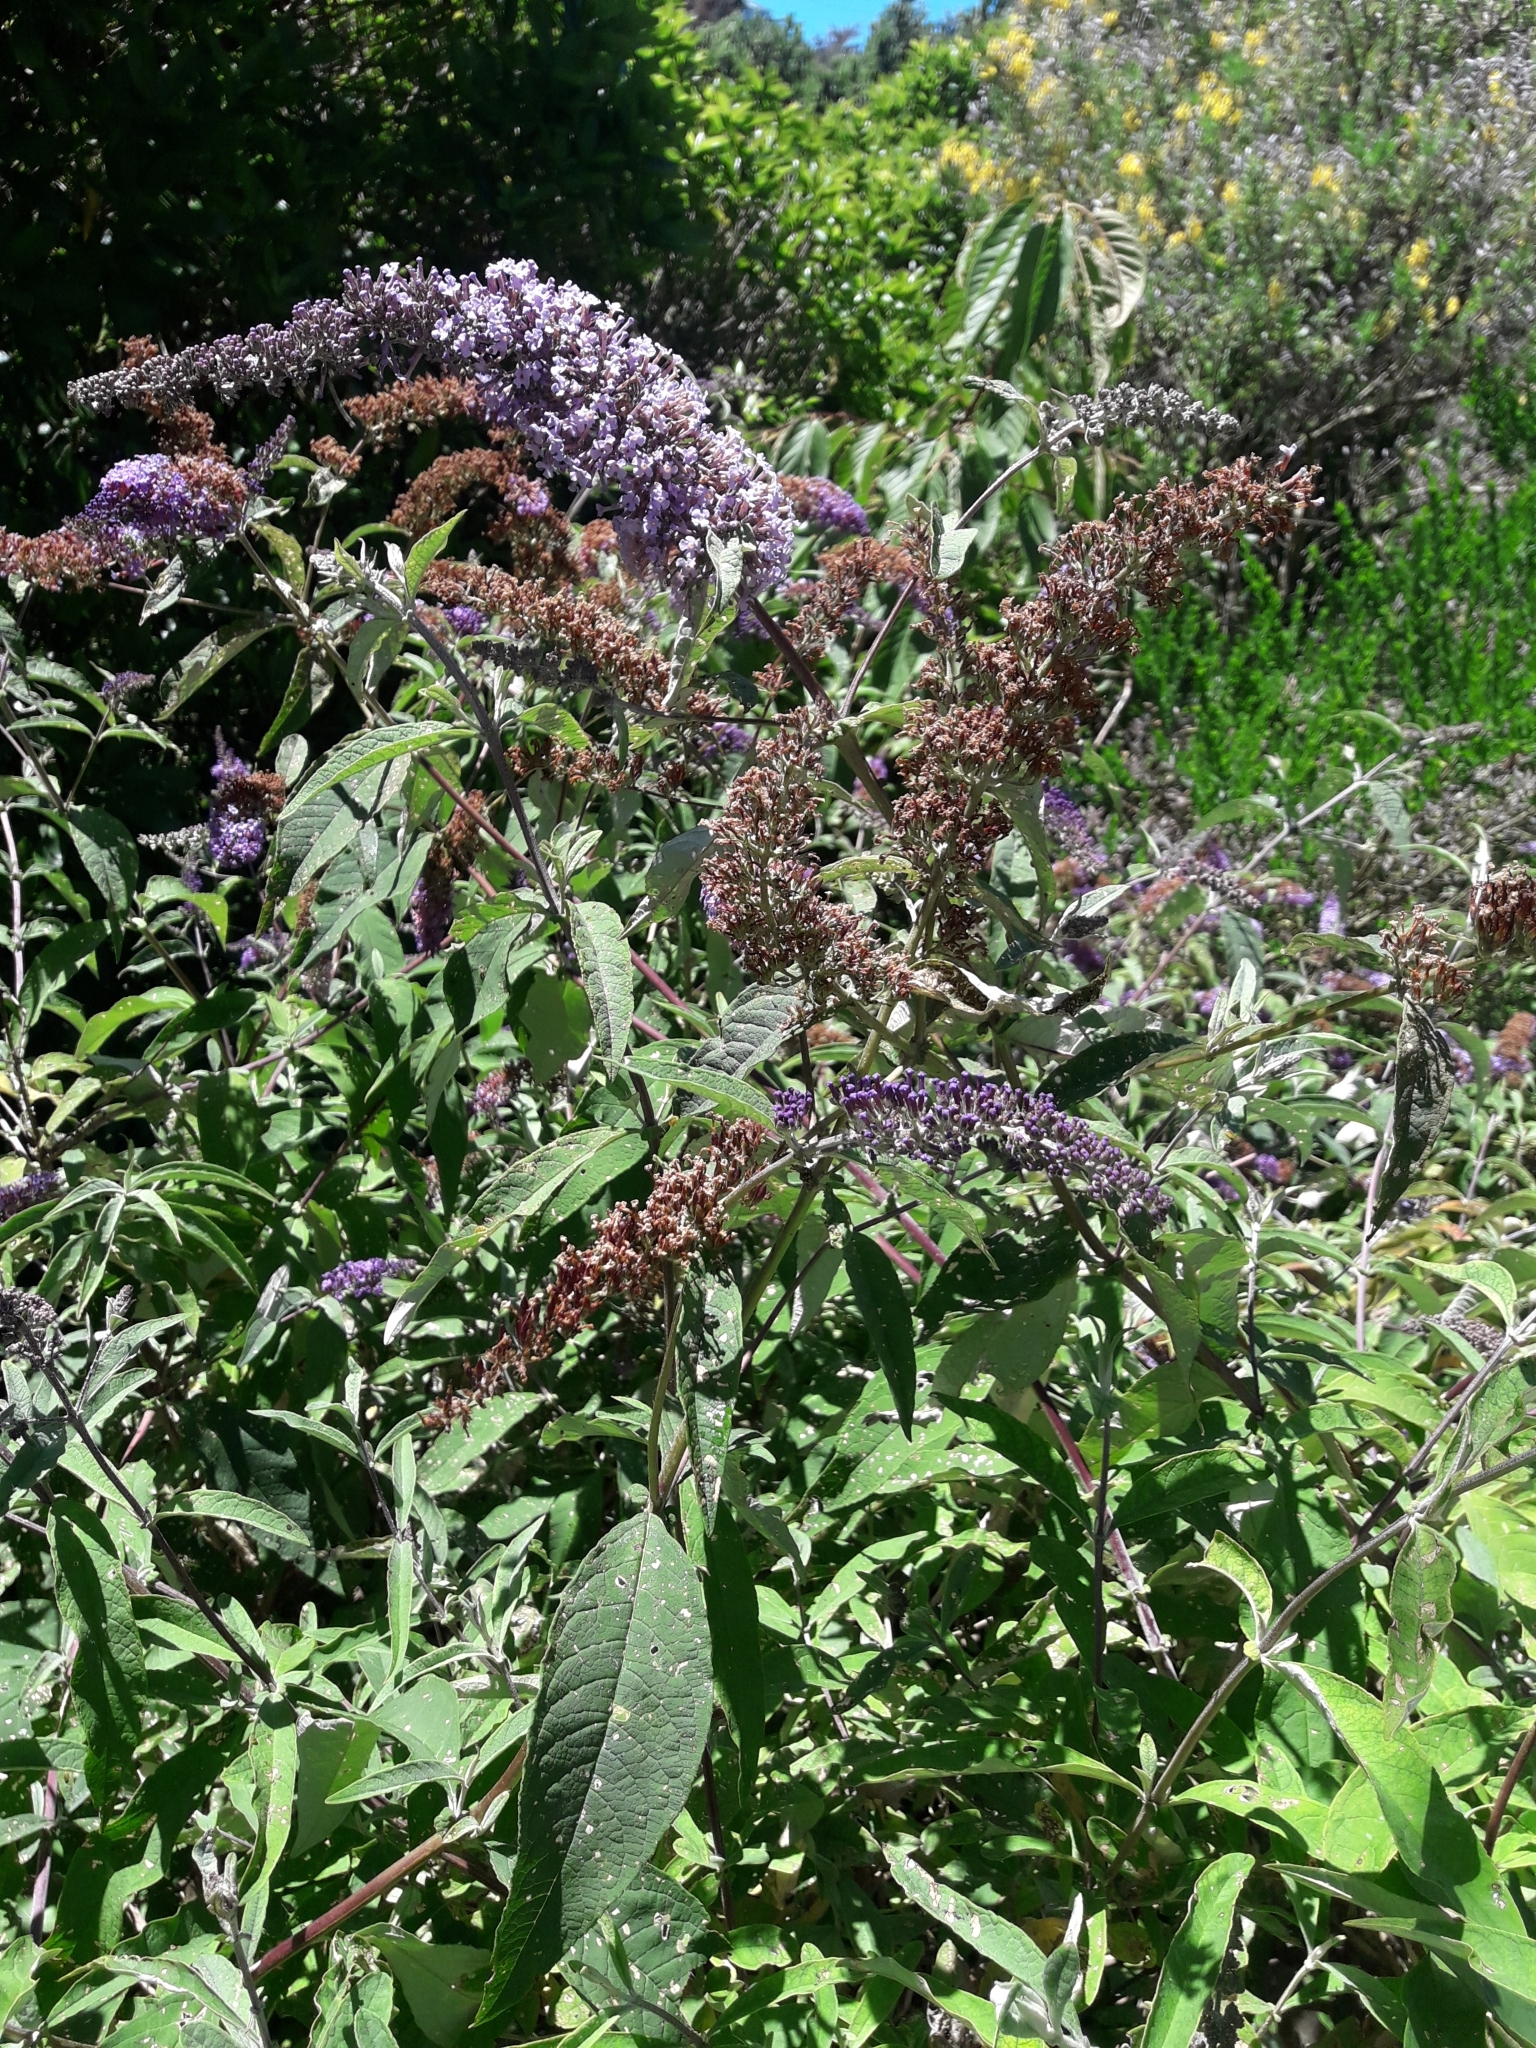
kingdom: Animalia
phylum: Arthropoda
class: Insecta
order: Coleoptera
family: Curculionidae
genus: Cleopus
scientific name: Cleopus japonicus
